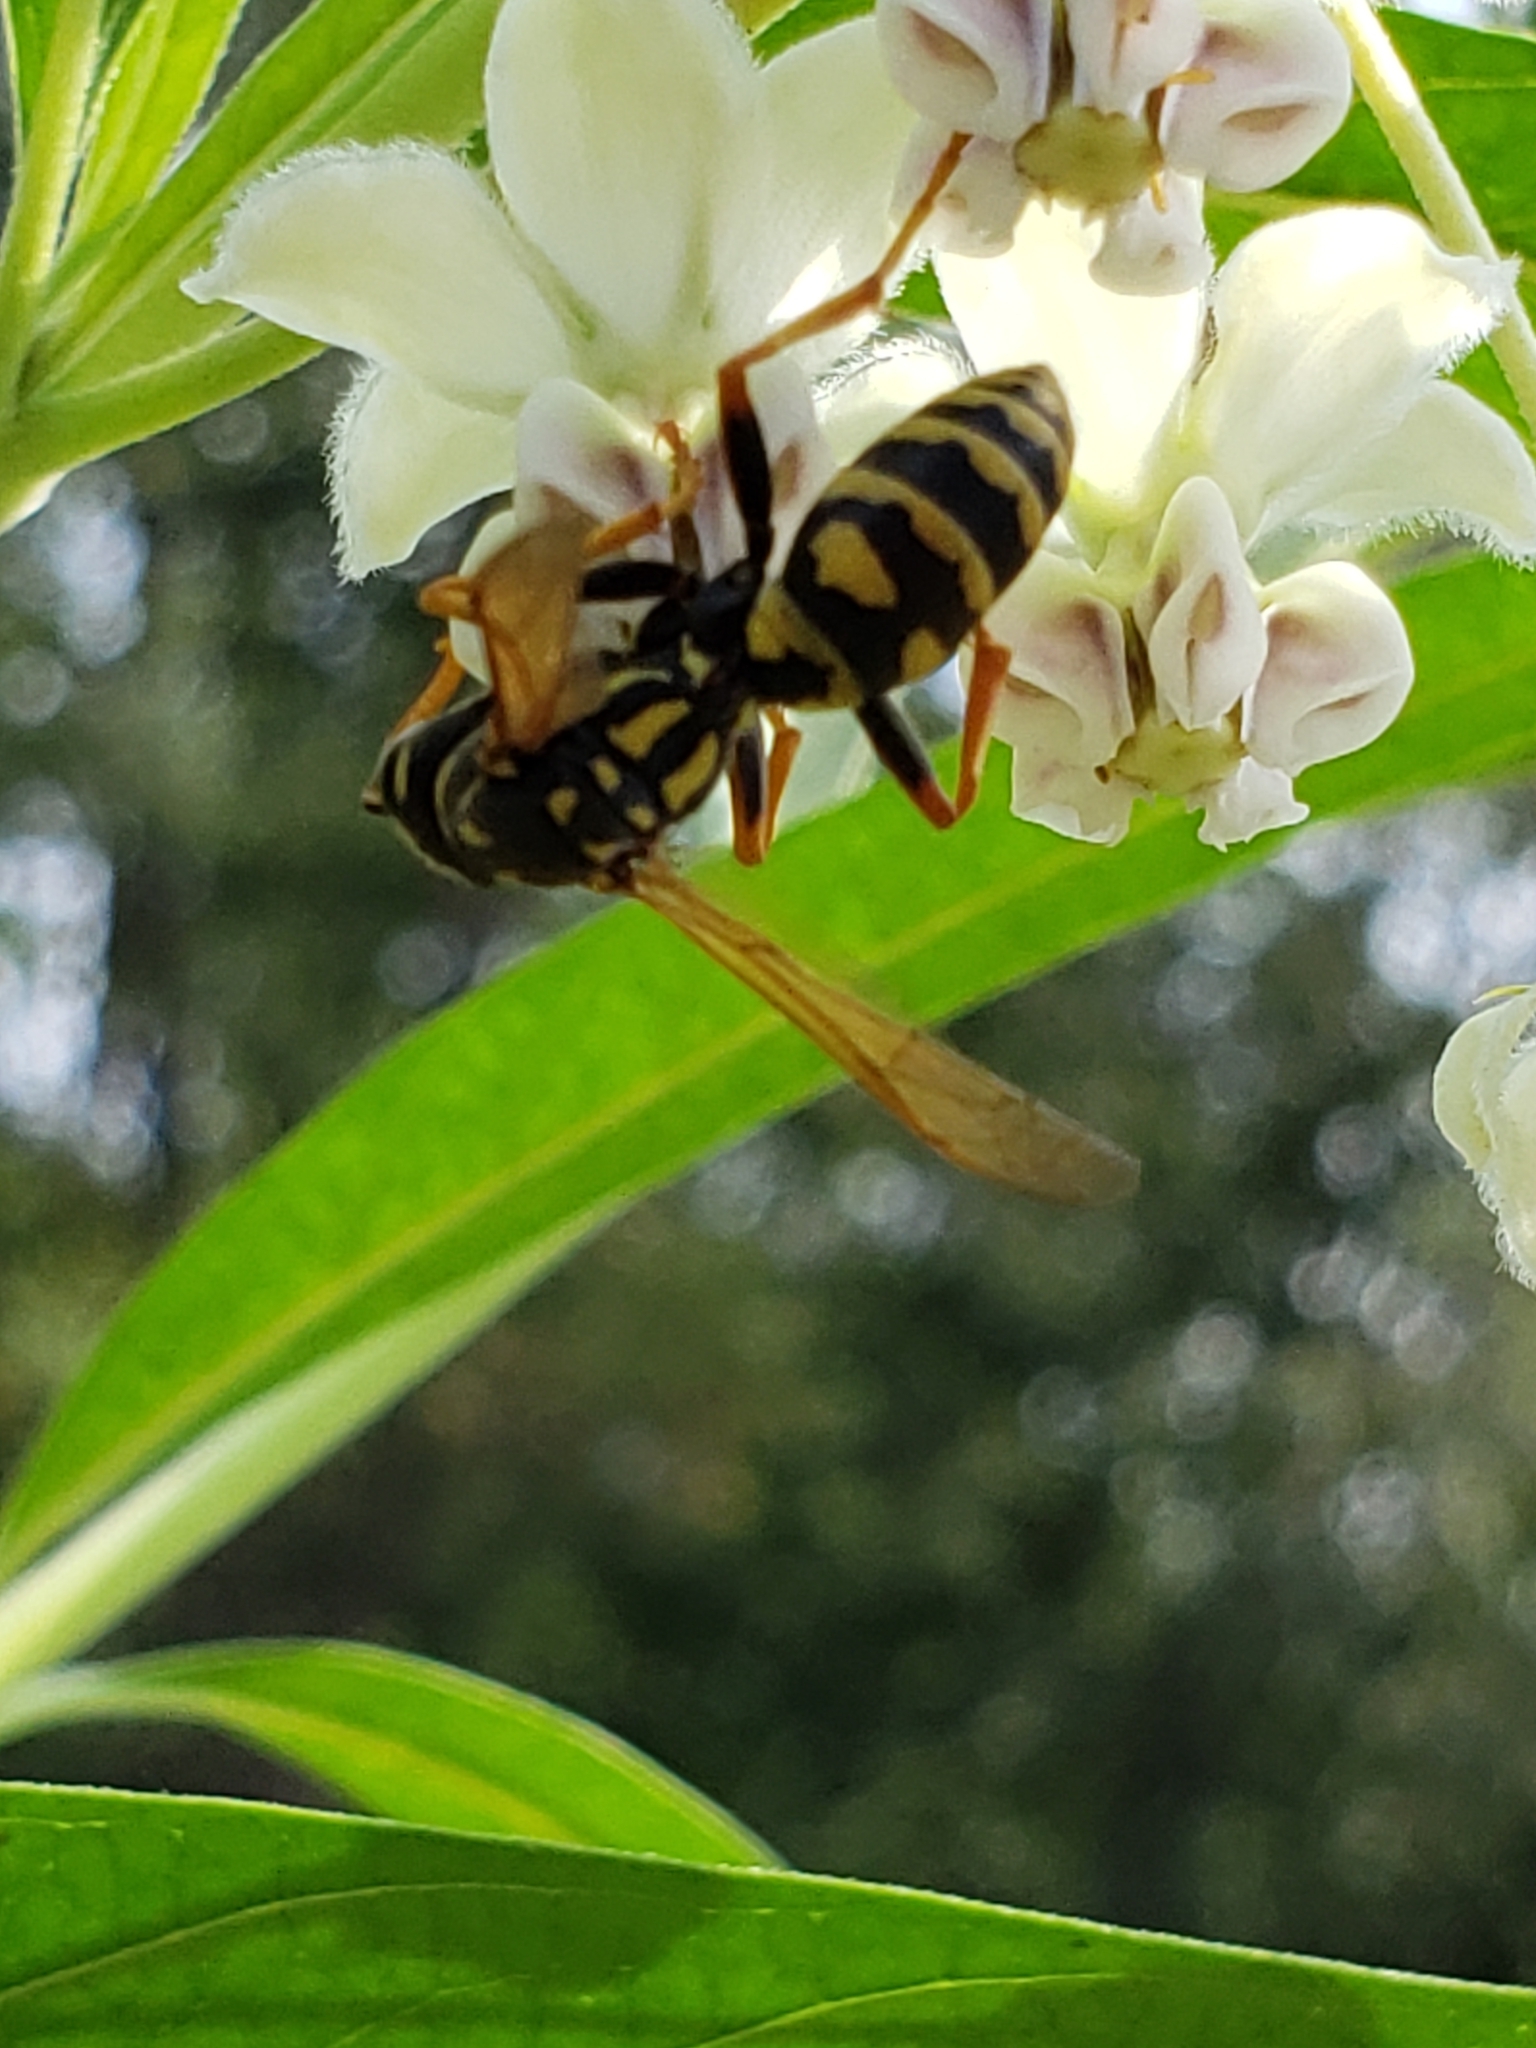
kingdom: Animalia
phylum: Arthropoda
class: Insecta
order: Hymenoptera
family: Eumenidae
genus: Polistes
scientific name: Polistes dominula
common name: Paper wasp
